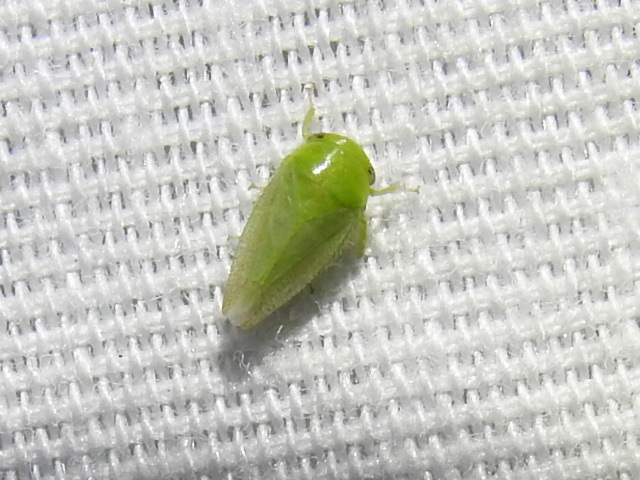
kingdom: Animalia
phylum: Arthropoda
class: Insecta
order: Hemiptera
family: Cicadellidae
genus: Penestragania
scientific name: Penestragania robusta
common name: Robust leafhopper
